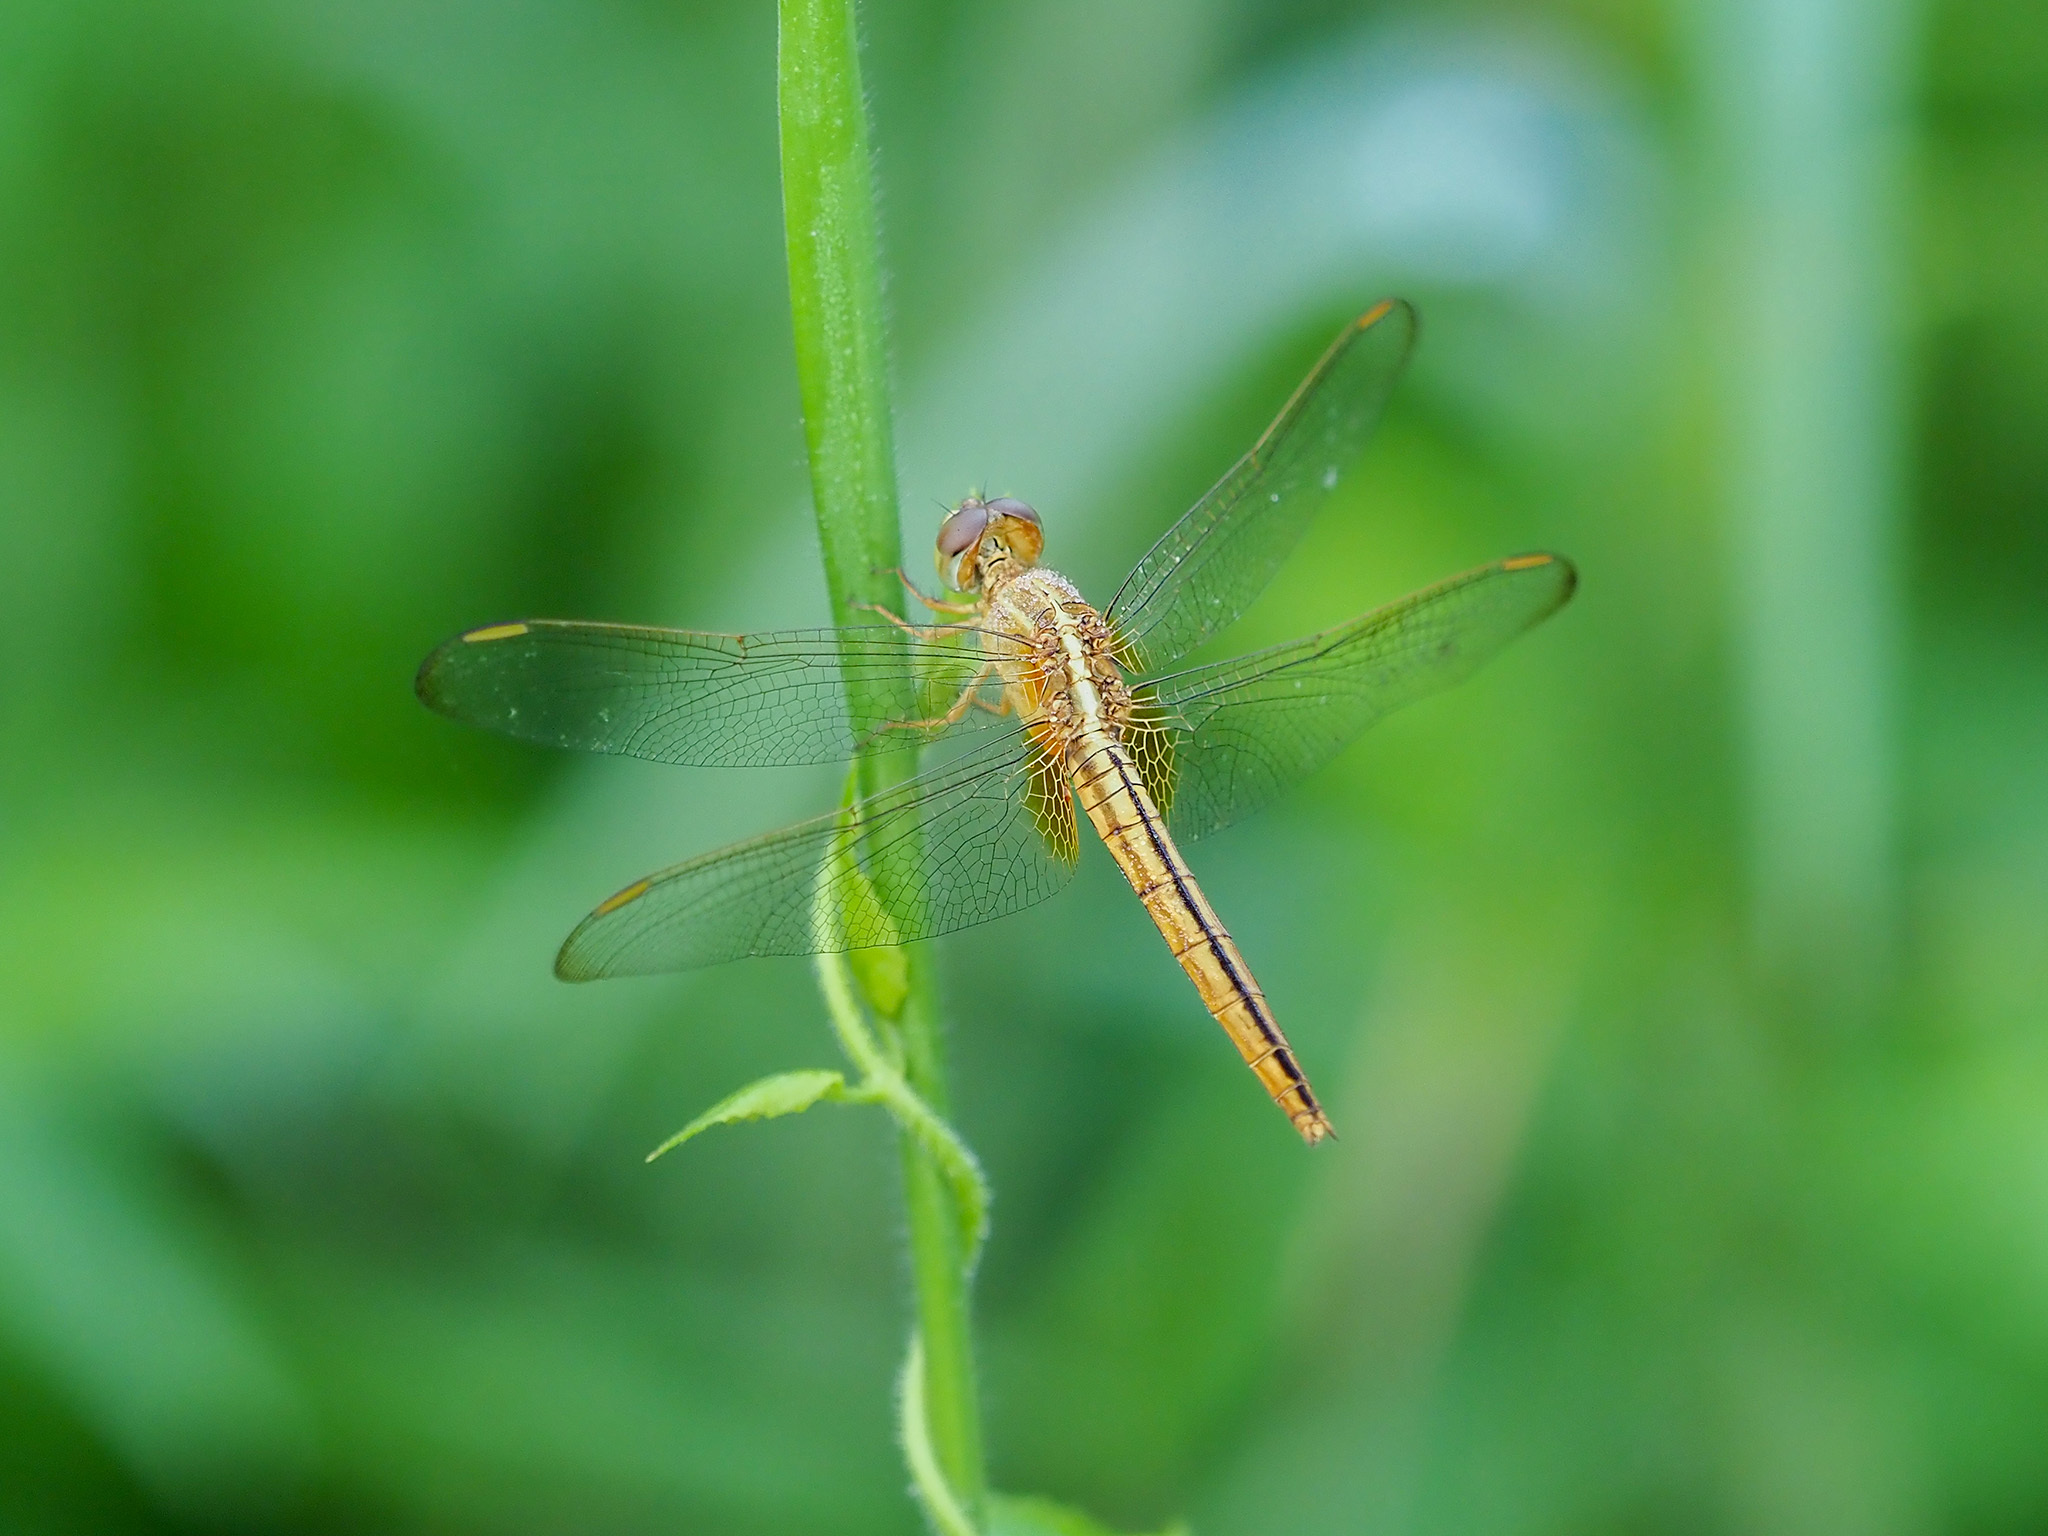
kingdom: Animalia
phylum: Arthropoda
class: Insecta
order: Odonata
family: Libellulidae
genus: Crocothemis
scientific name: Crocothemis servilia
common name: Scarlet skimmer
